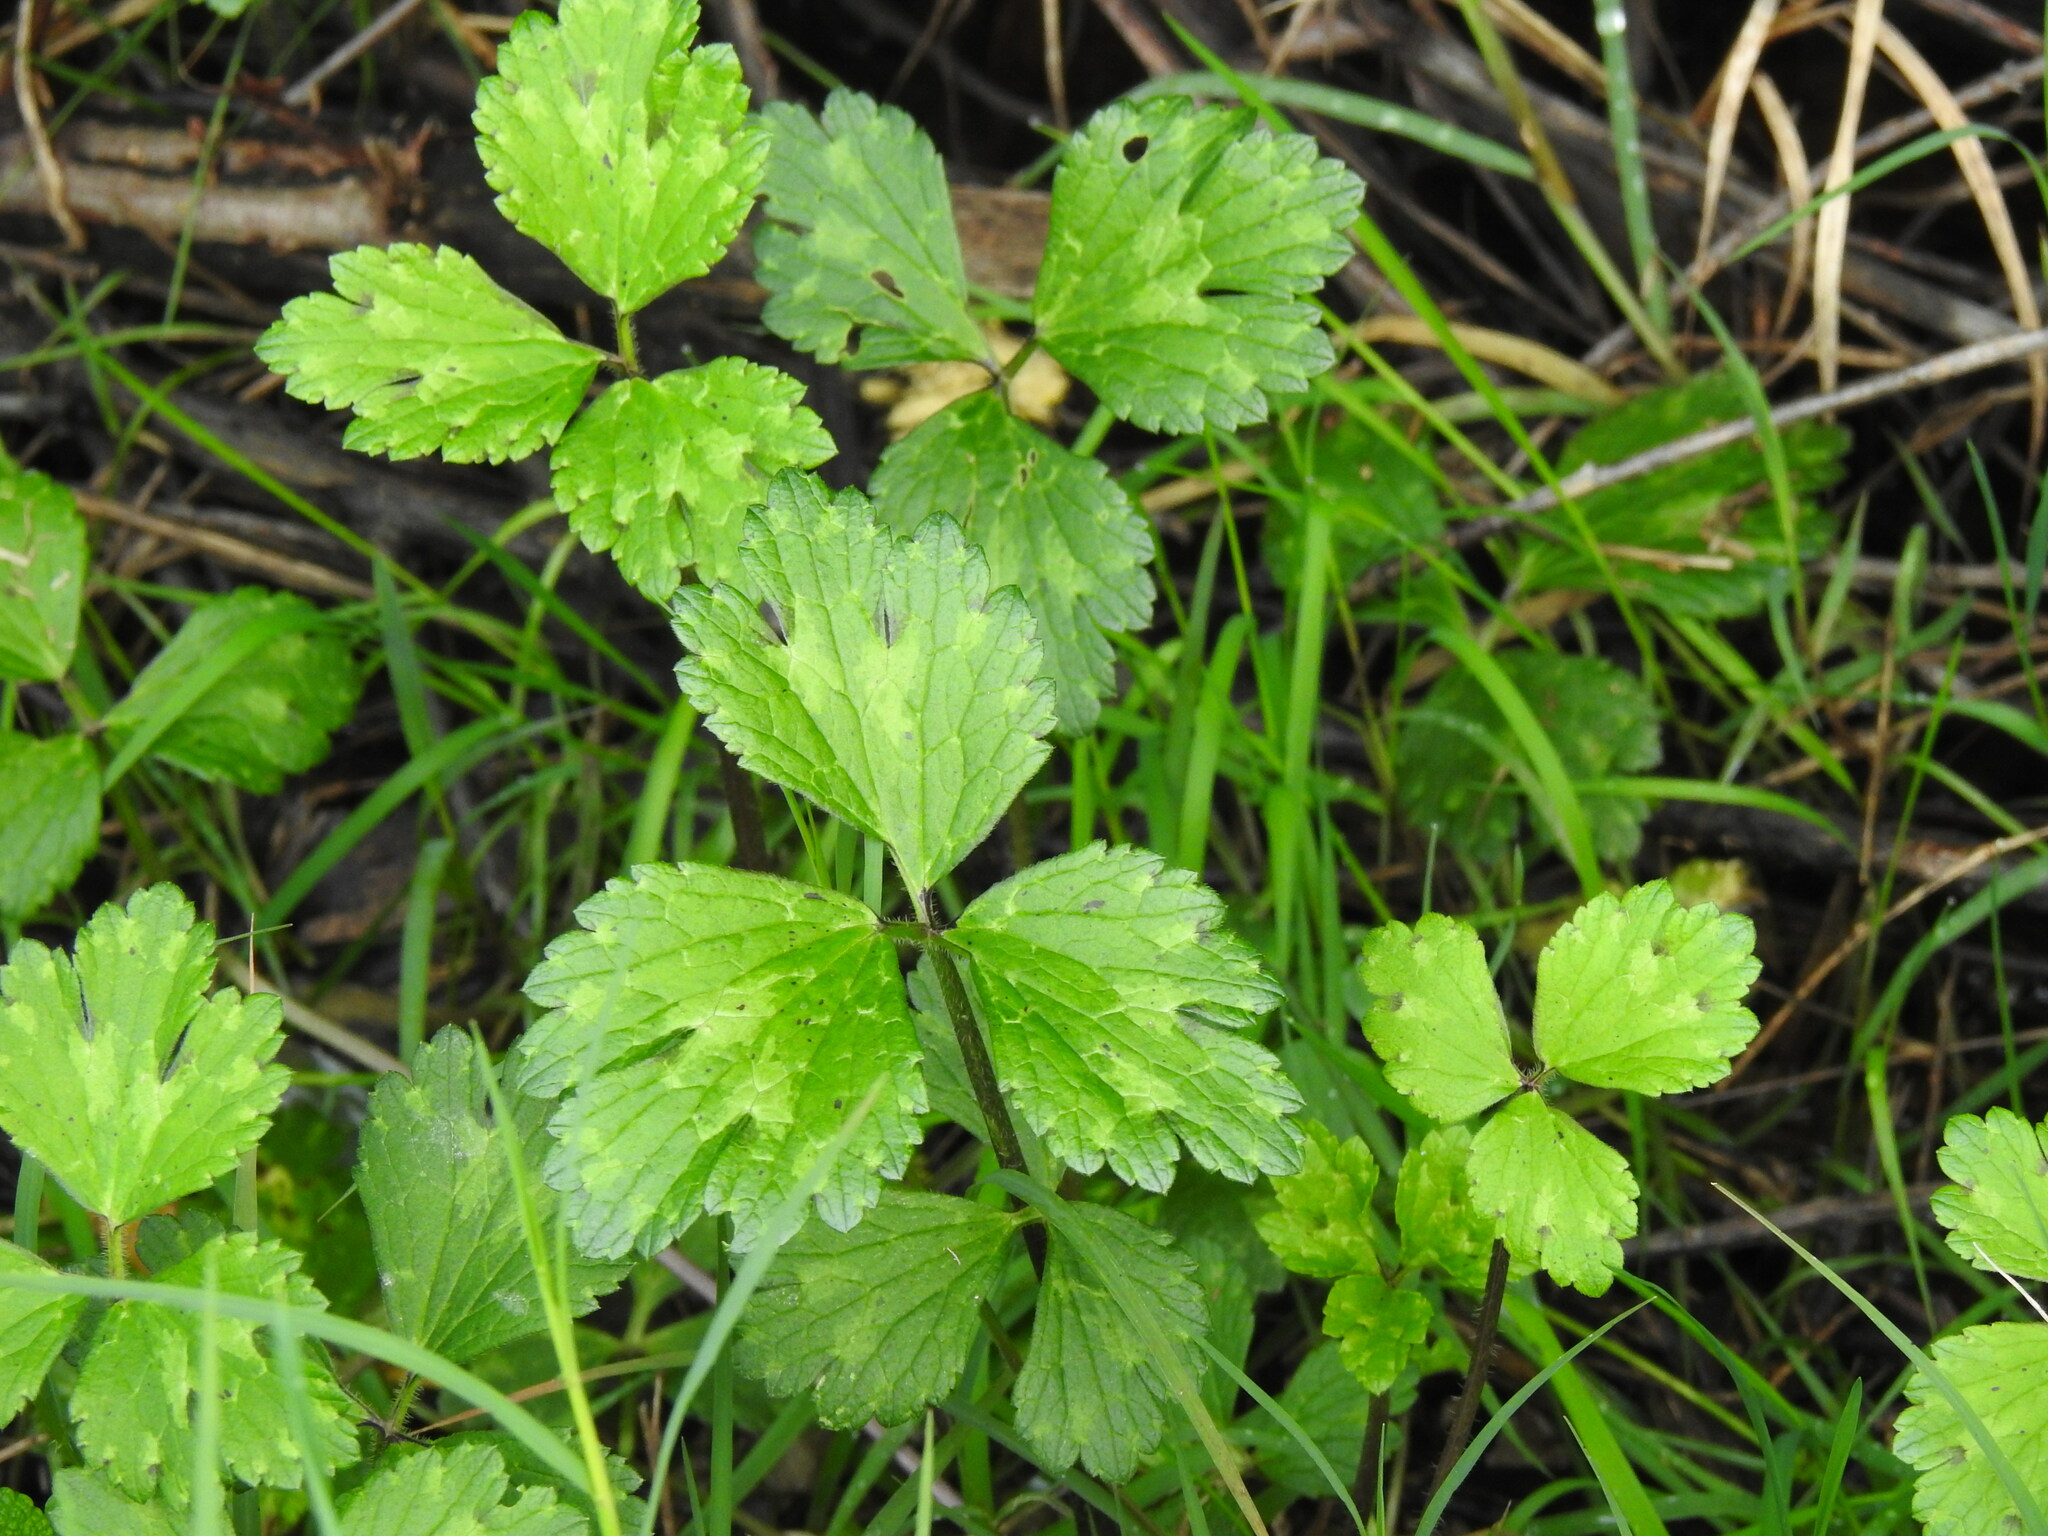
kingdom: Plantae
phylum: Tracheophyta
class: Magnoliopsida
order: Ranunculales
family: Ranunculaceae
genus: Ranunculus
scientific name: Ranunculus repens
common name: Creeping buttercup
